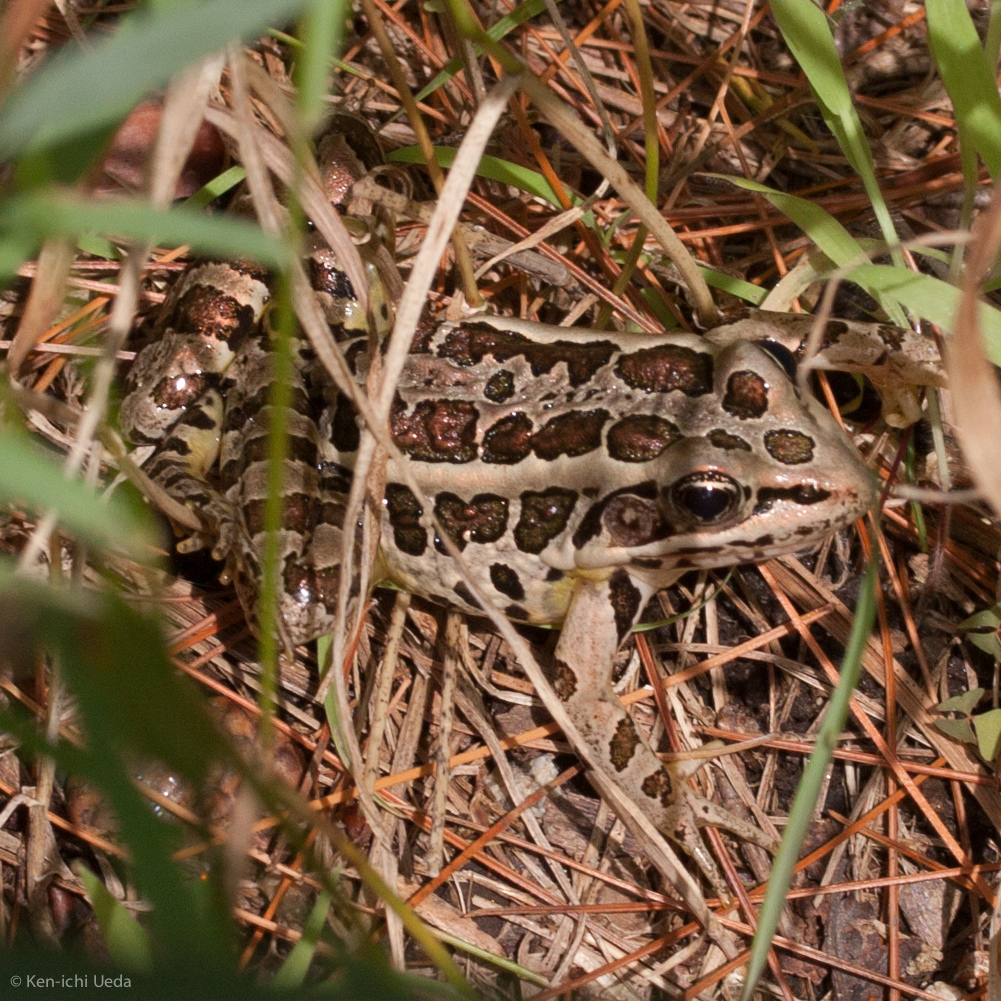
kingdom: Animalia
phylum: Chordata
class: Amphibia
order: Anura
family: Ranidae
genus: Lithobates
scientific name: Lithobates palustris
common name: Pickerel frog
